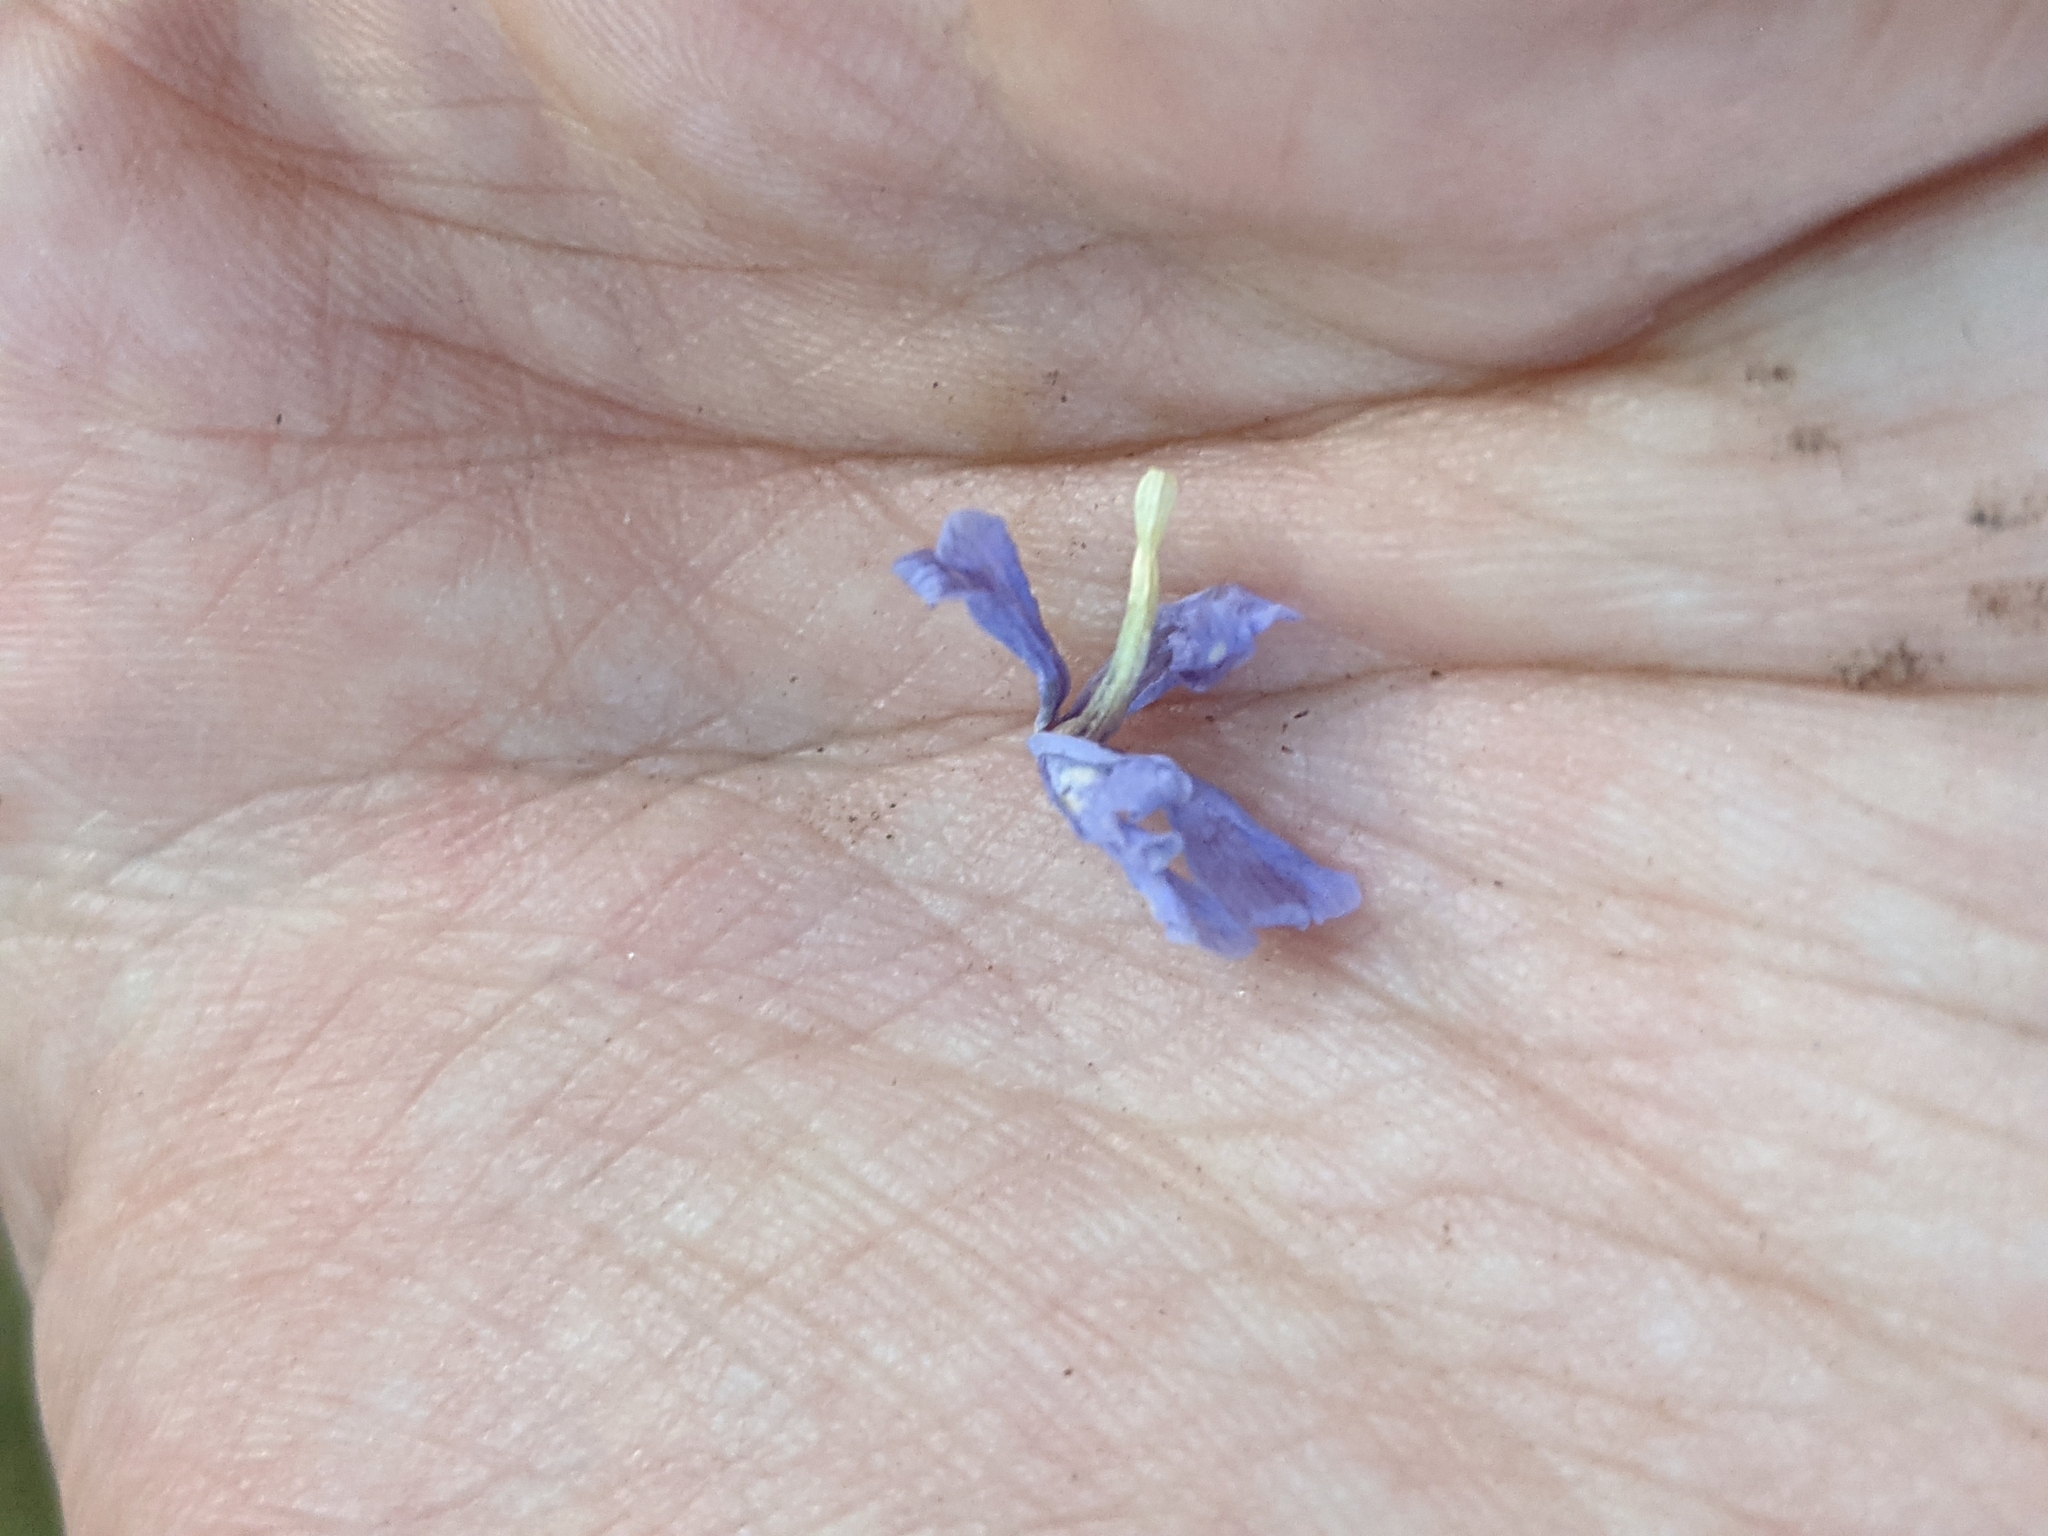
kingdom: Plantae
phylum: Tracheophyta
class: Magnoliopsida
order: Ericales
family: Polemoniaceae
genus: Phlox
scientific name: Phlox divaricata
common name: Blue phlox
